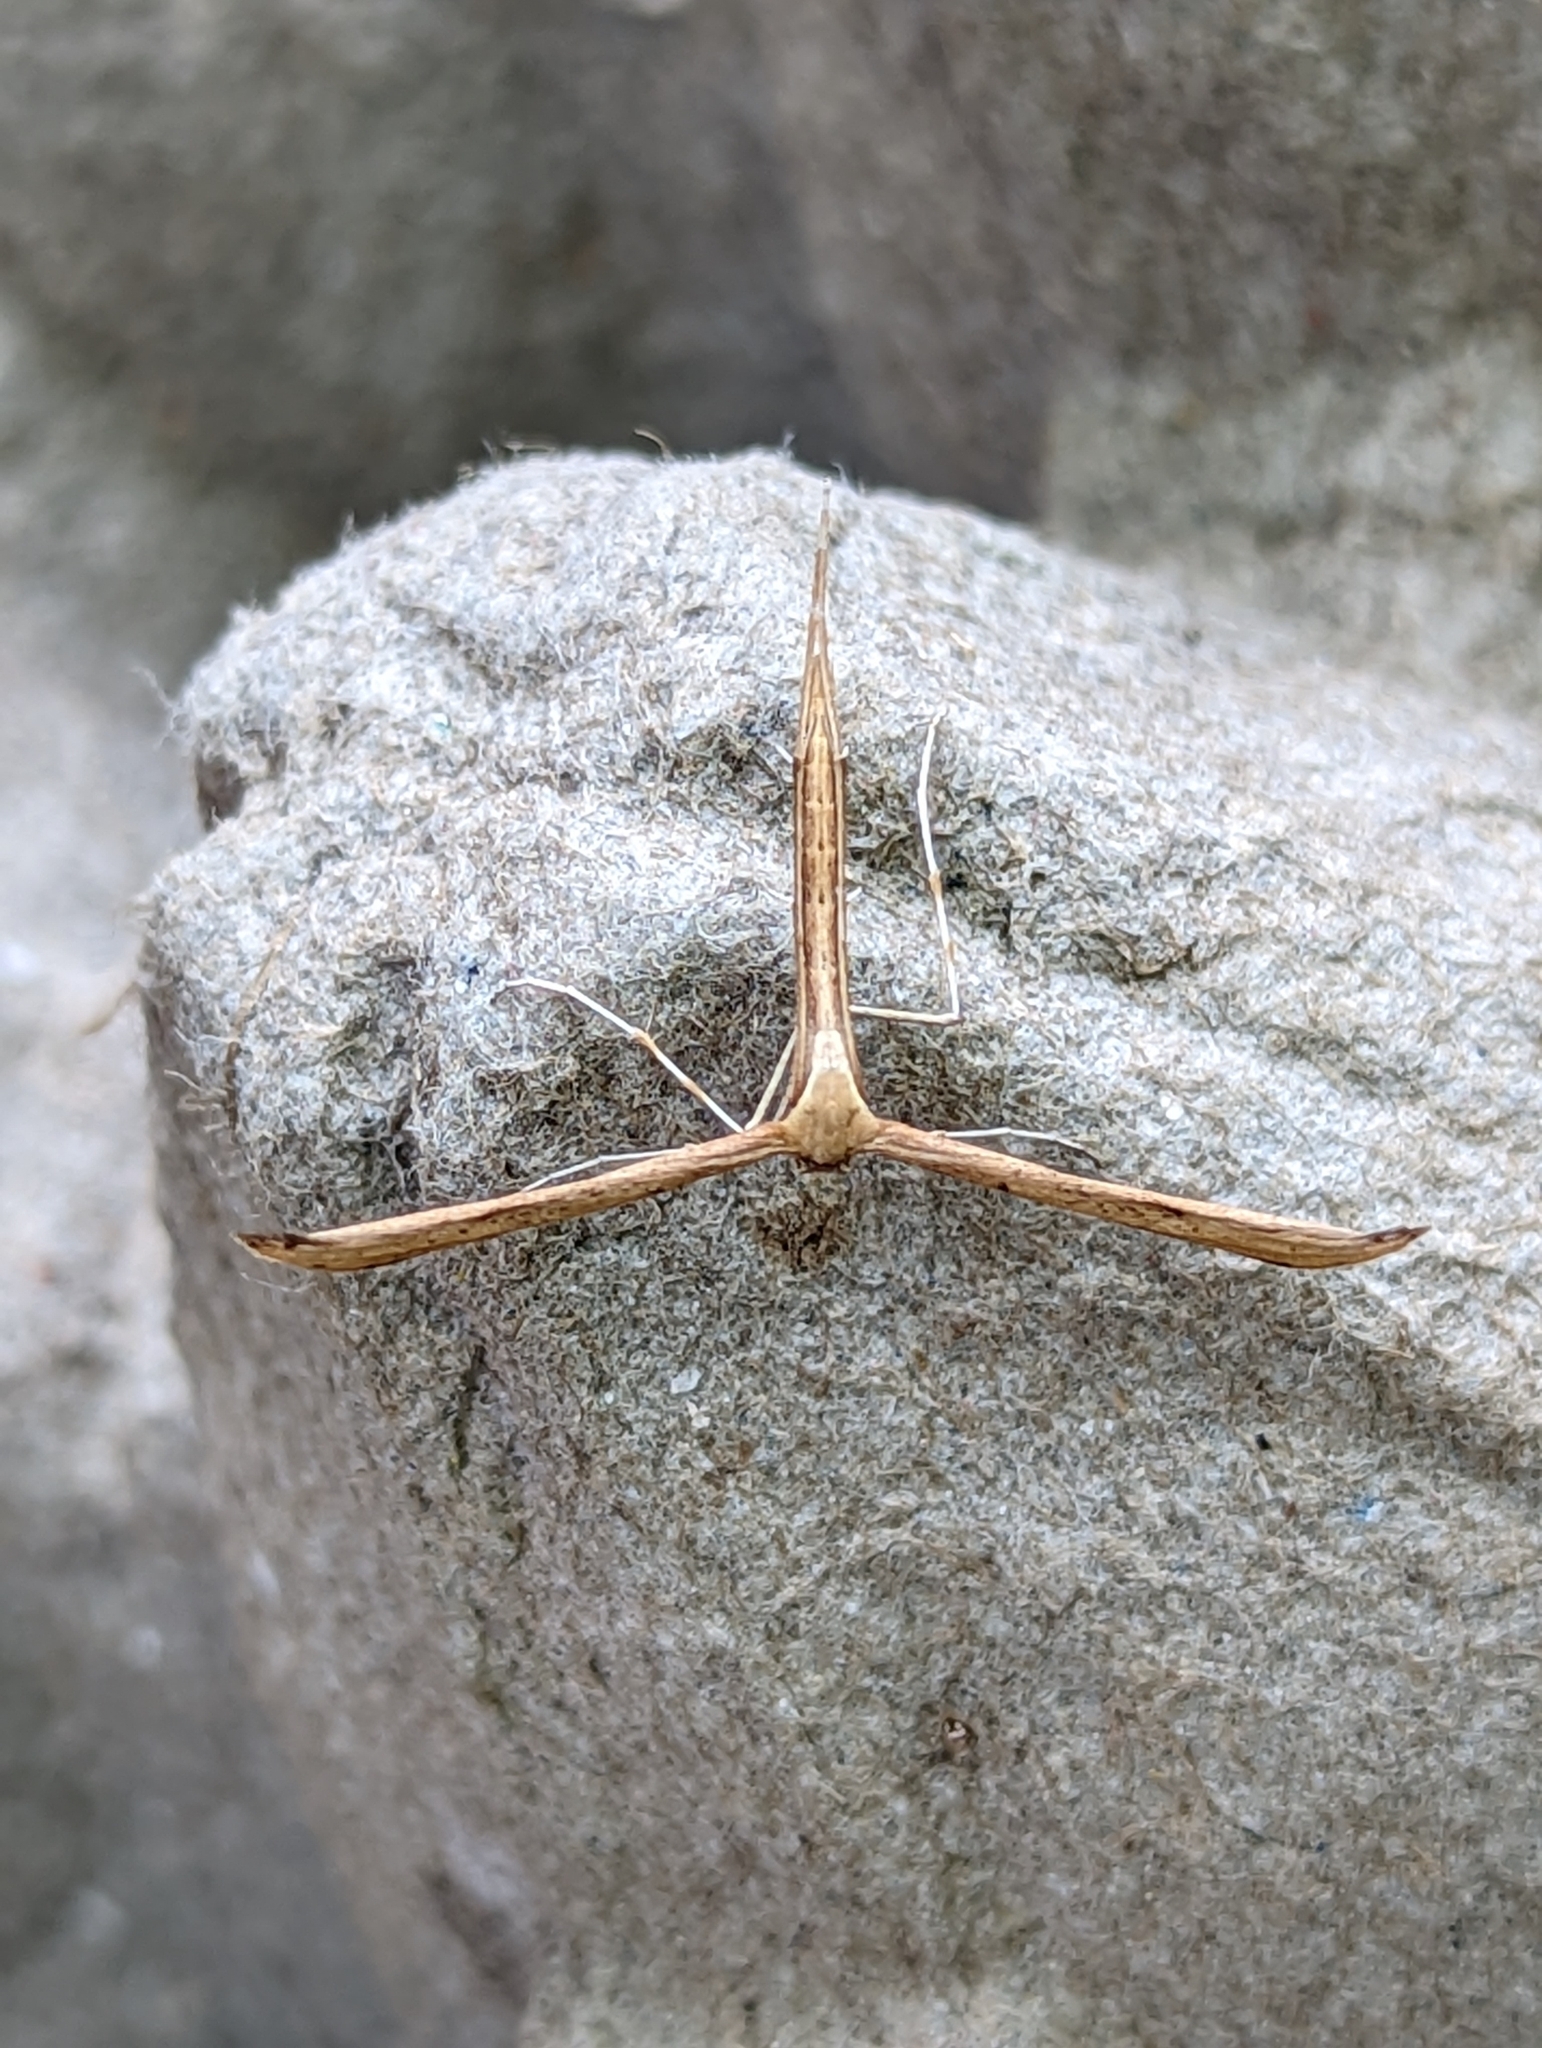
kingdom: Animalia
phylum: Arthropoda
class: Insecta
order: Lepidoptera
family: Pterophoridae
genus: Emmelina
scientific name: Emmelina monodactyla
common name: Common plume
